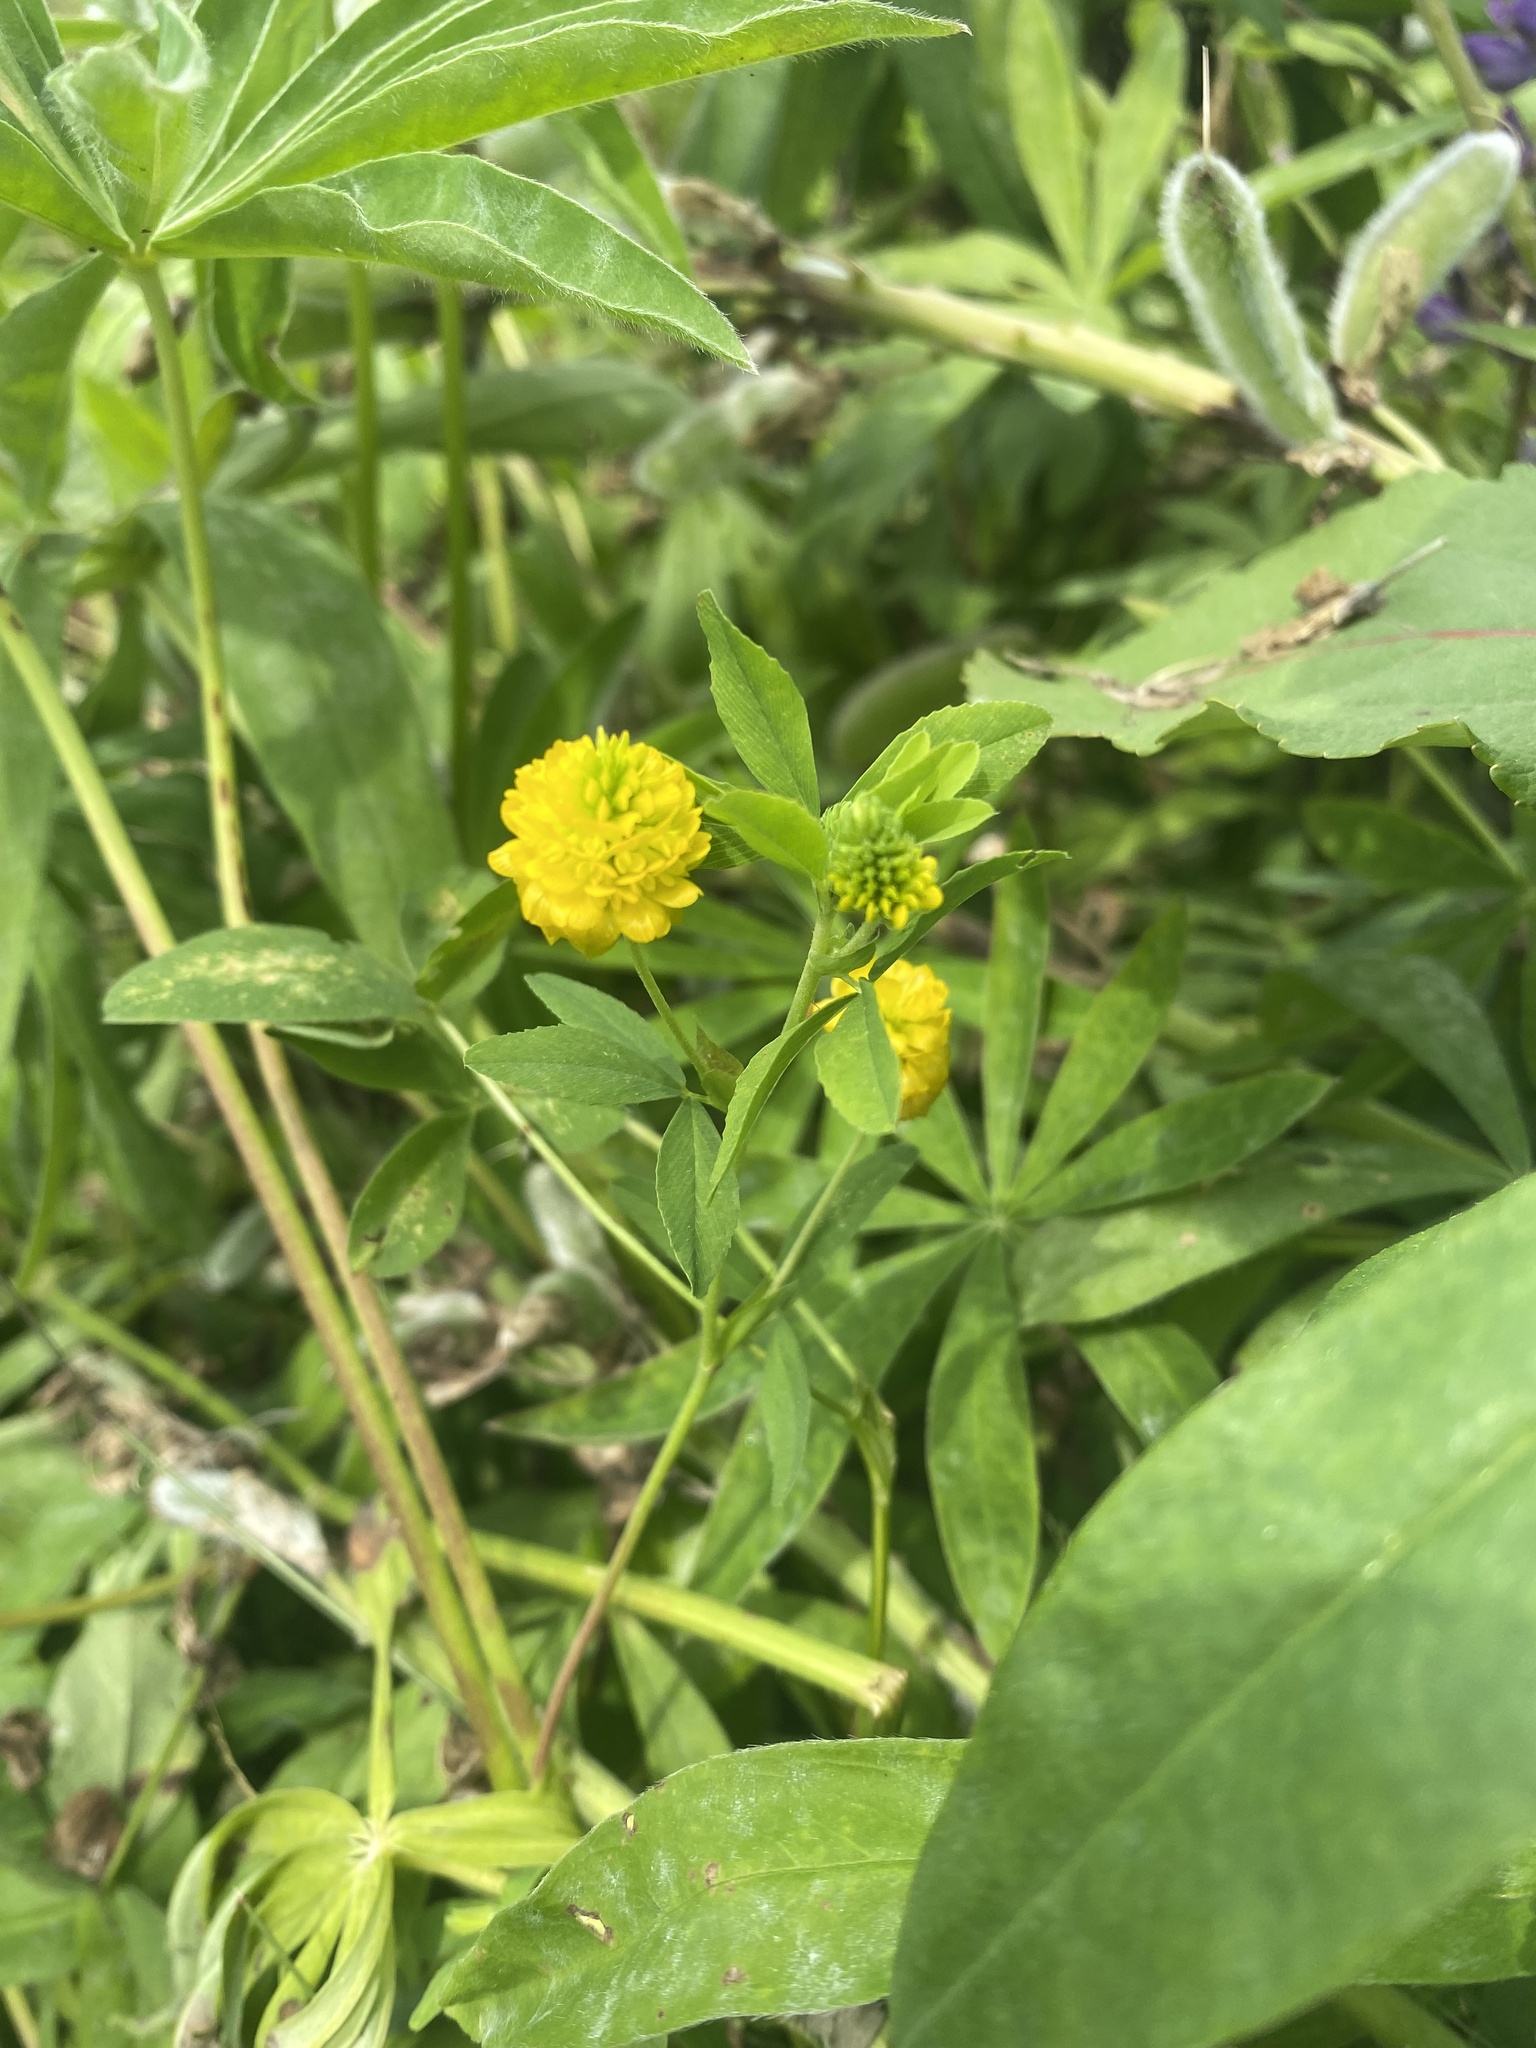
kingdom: Plantae
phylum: Tracheophyta
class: Magnoliopsida
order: Fabales
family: Fabaceae
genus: Trifolium
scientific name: Trifolium aureum
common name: Golden clover
